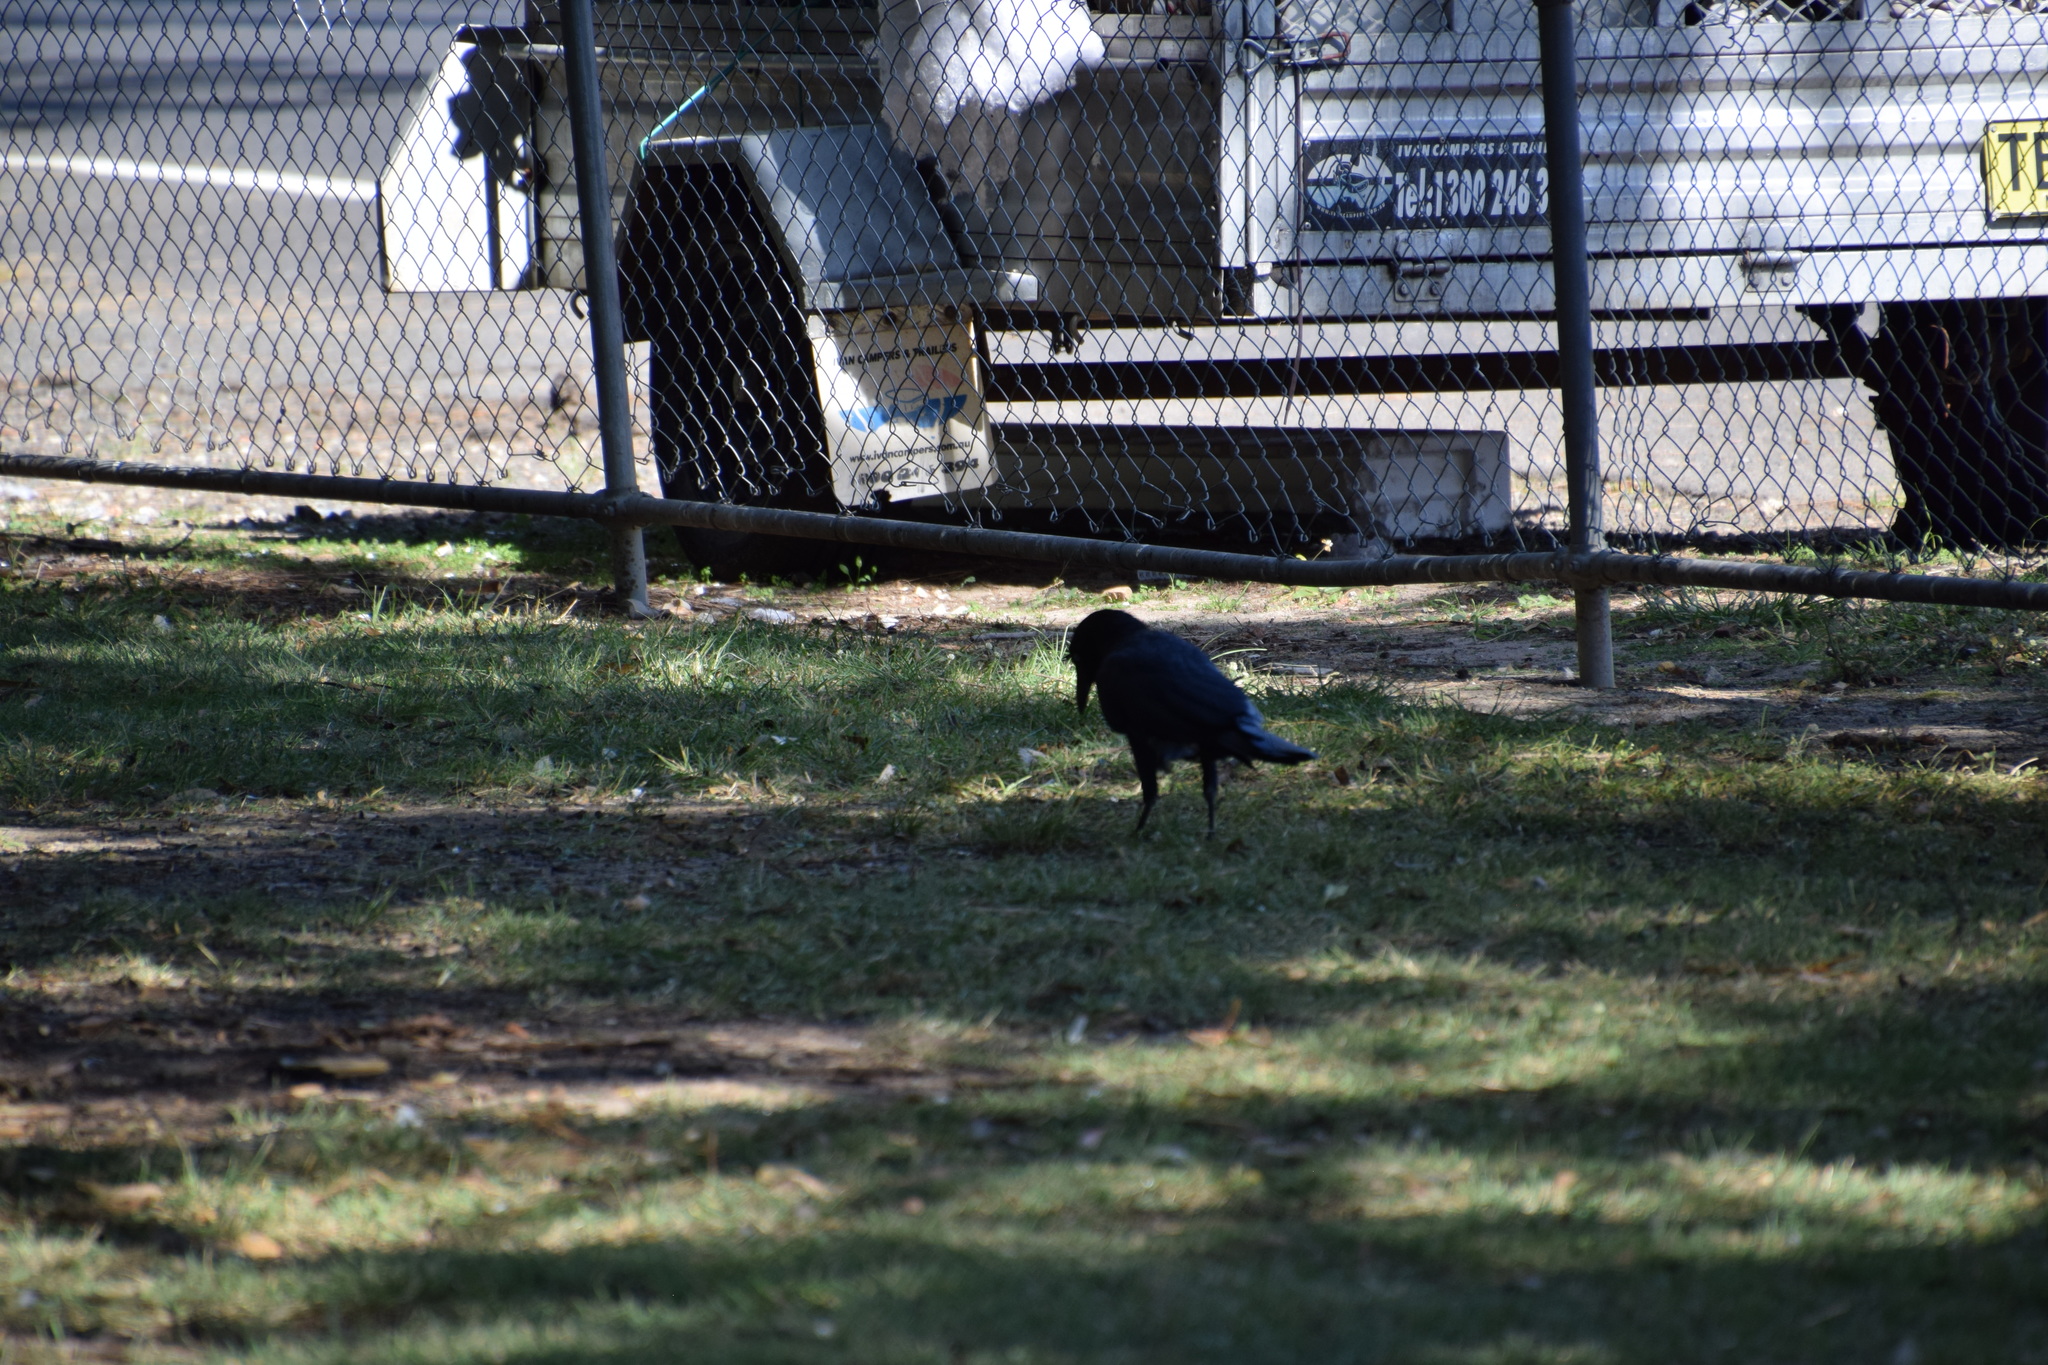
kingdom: Animalia
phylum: Chordata
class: Aves
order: Passeriformes
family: Corvidae
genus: Corvus
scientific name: Corvus coronoides
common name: Australian raven
